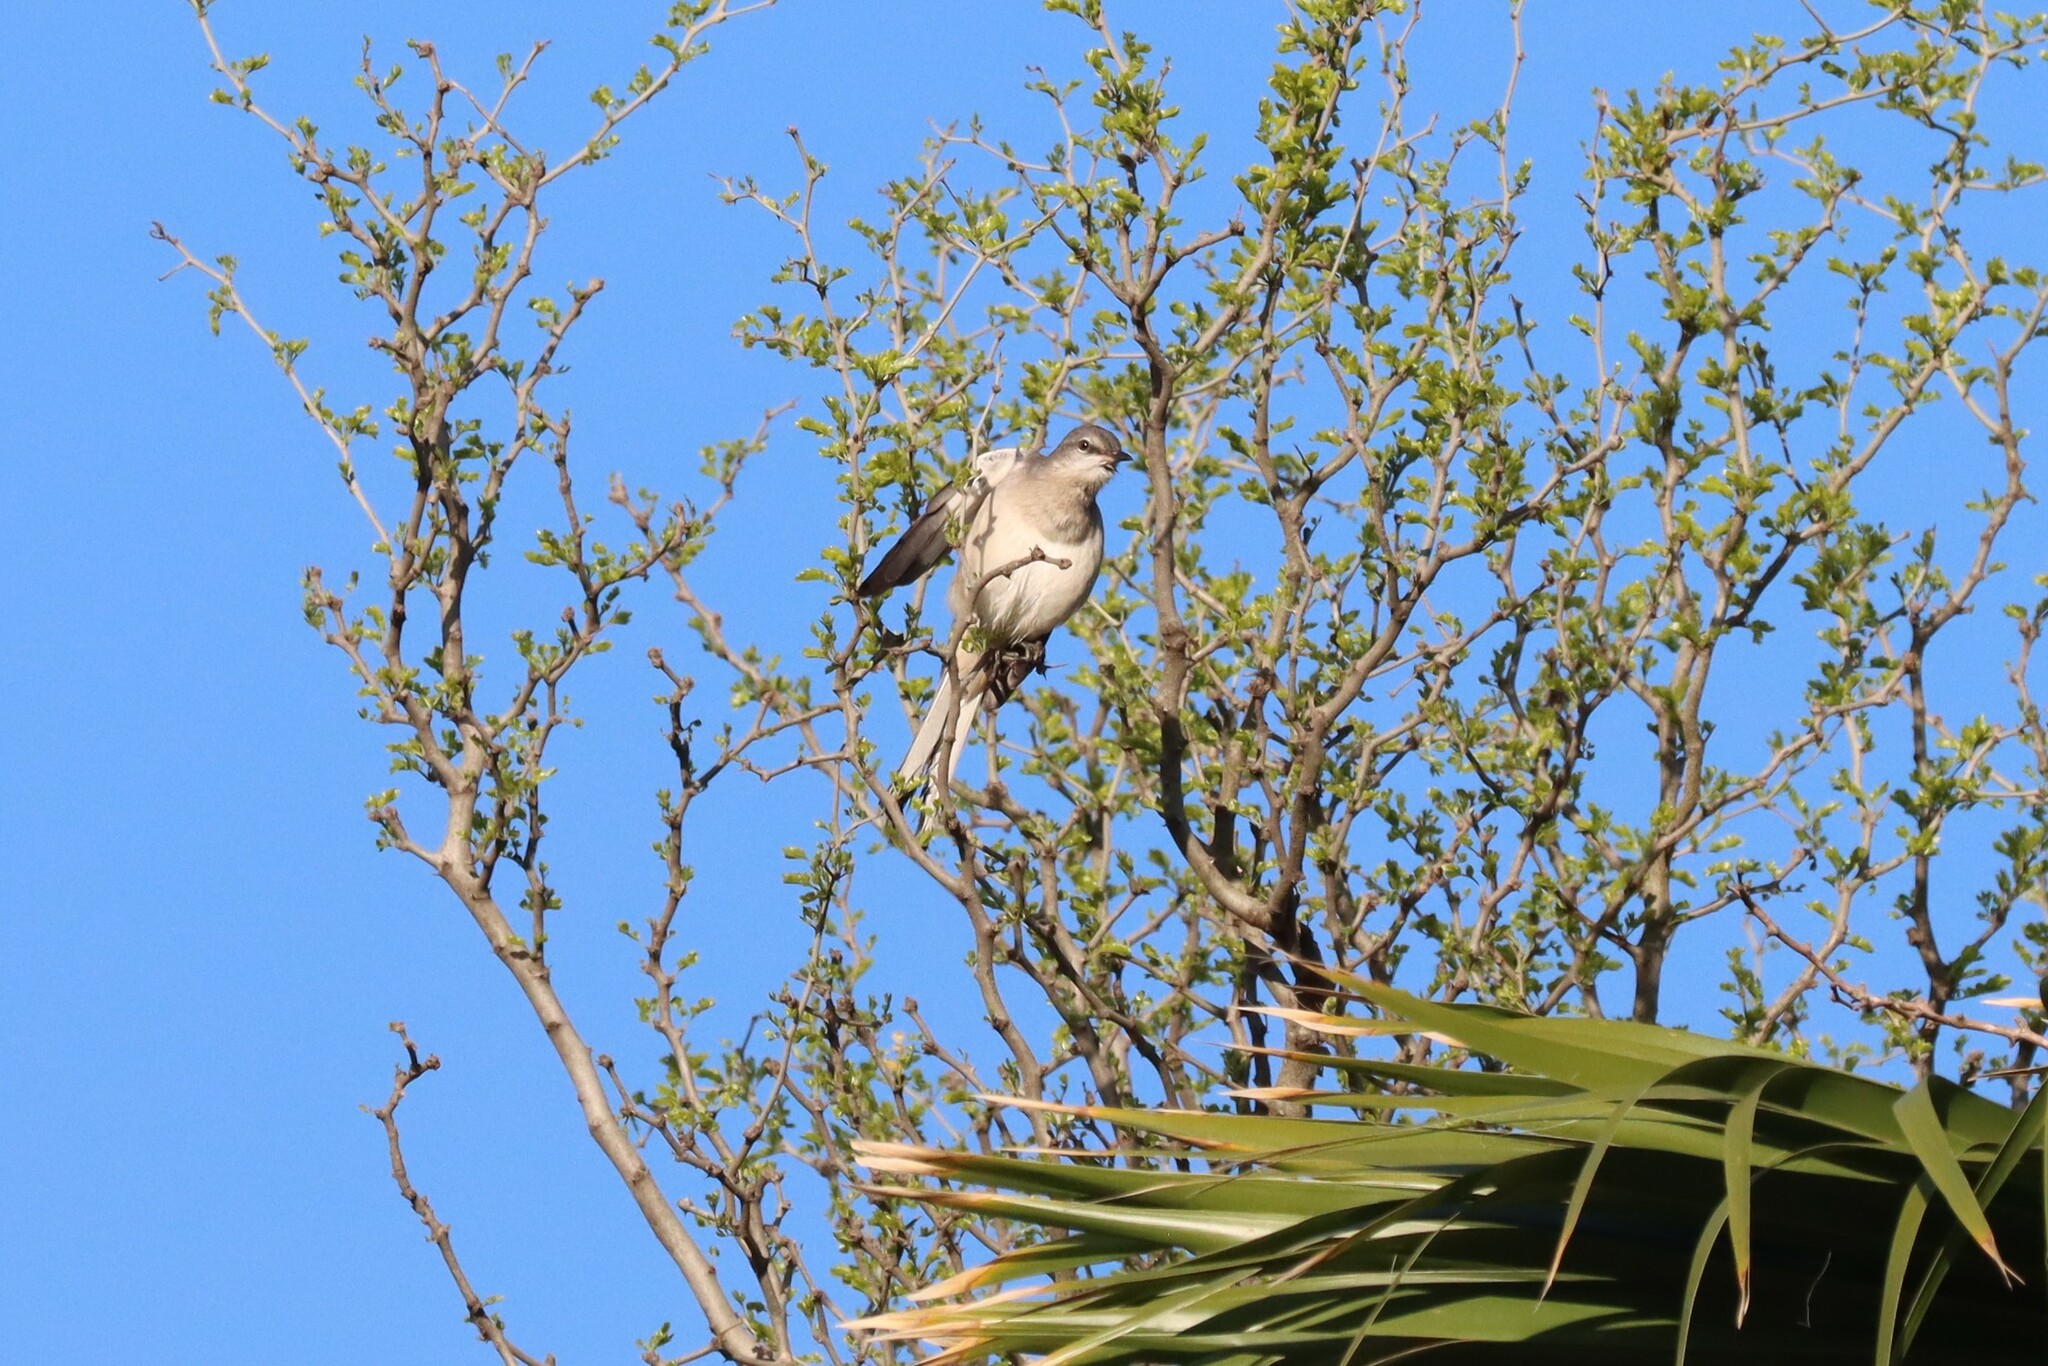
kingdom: Animalia
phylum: Chordata
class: Aves
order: Passeriformes
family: Mimidae
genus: Mimus
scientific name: Mimus polyglottos
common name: Northern mockingbird
